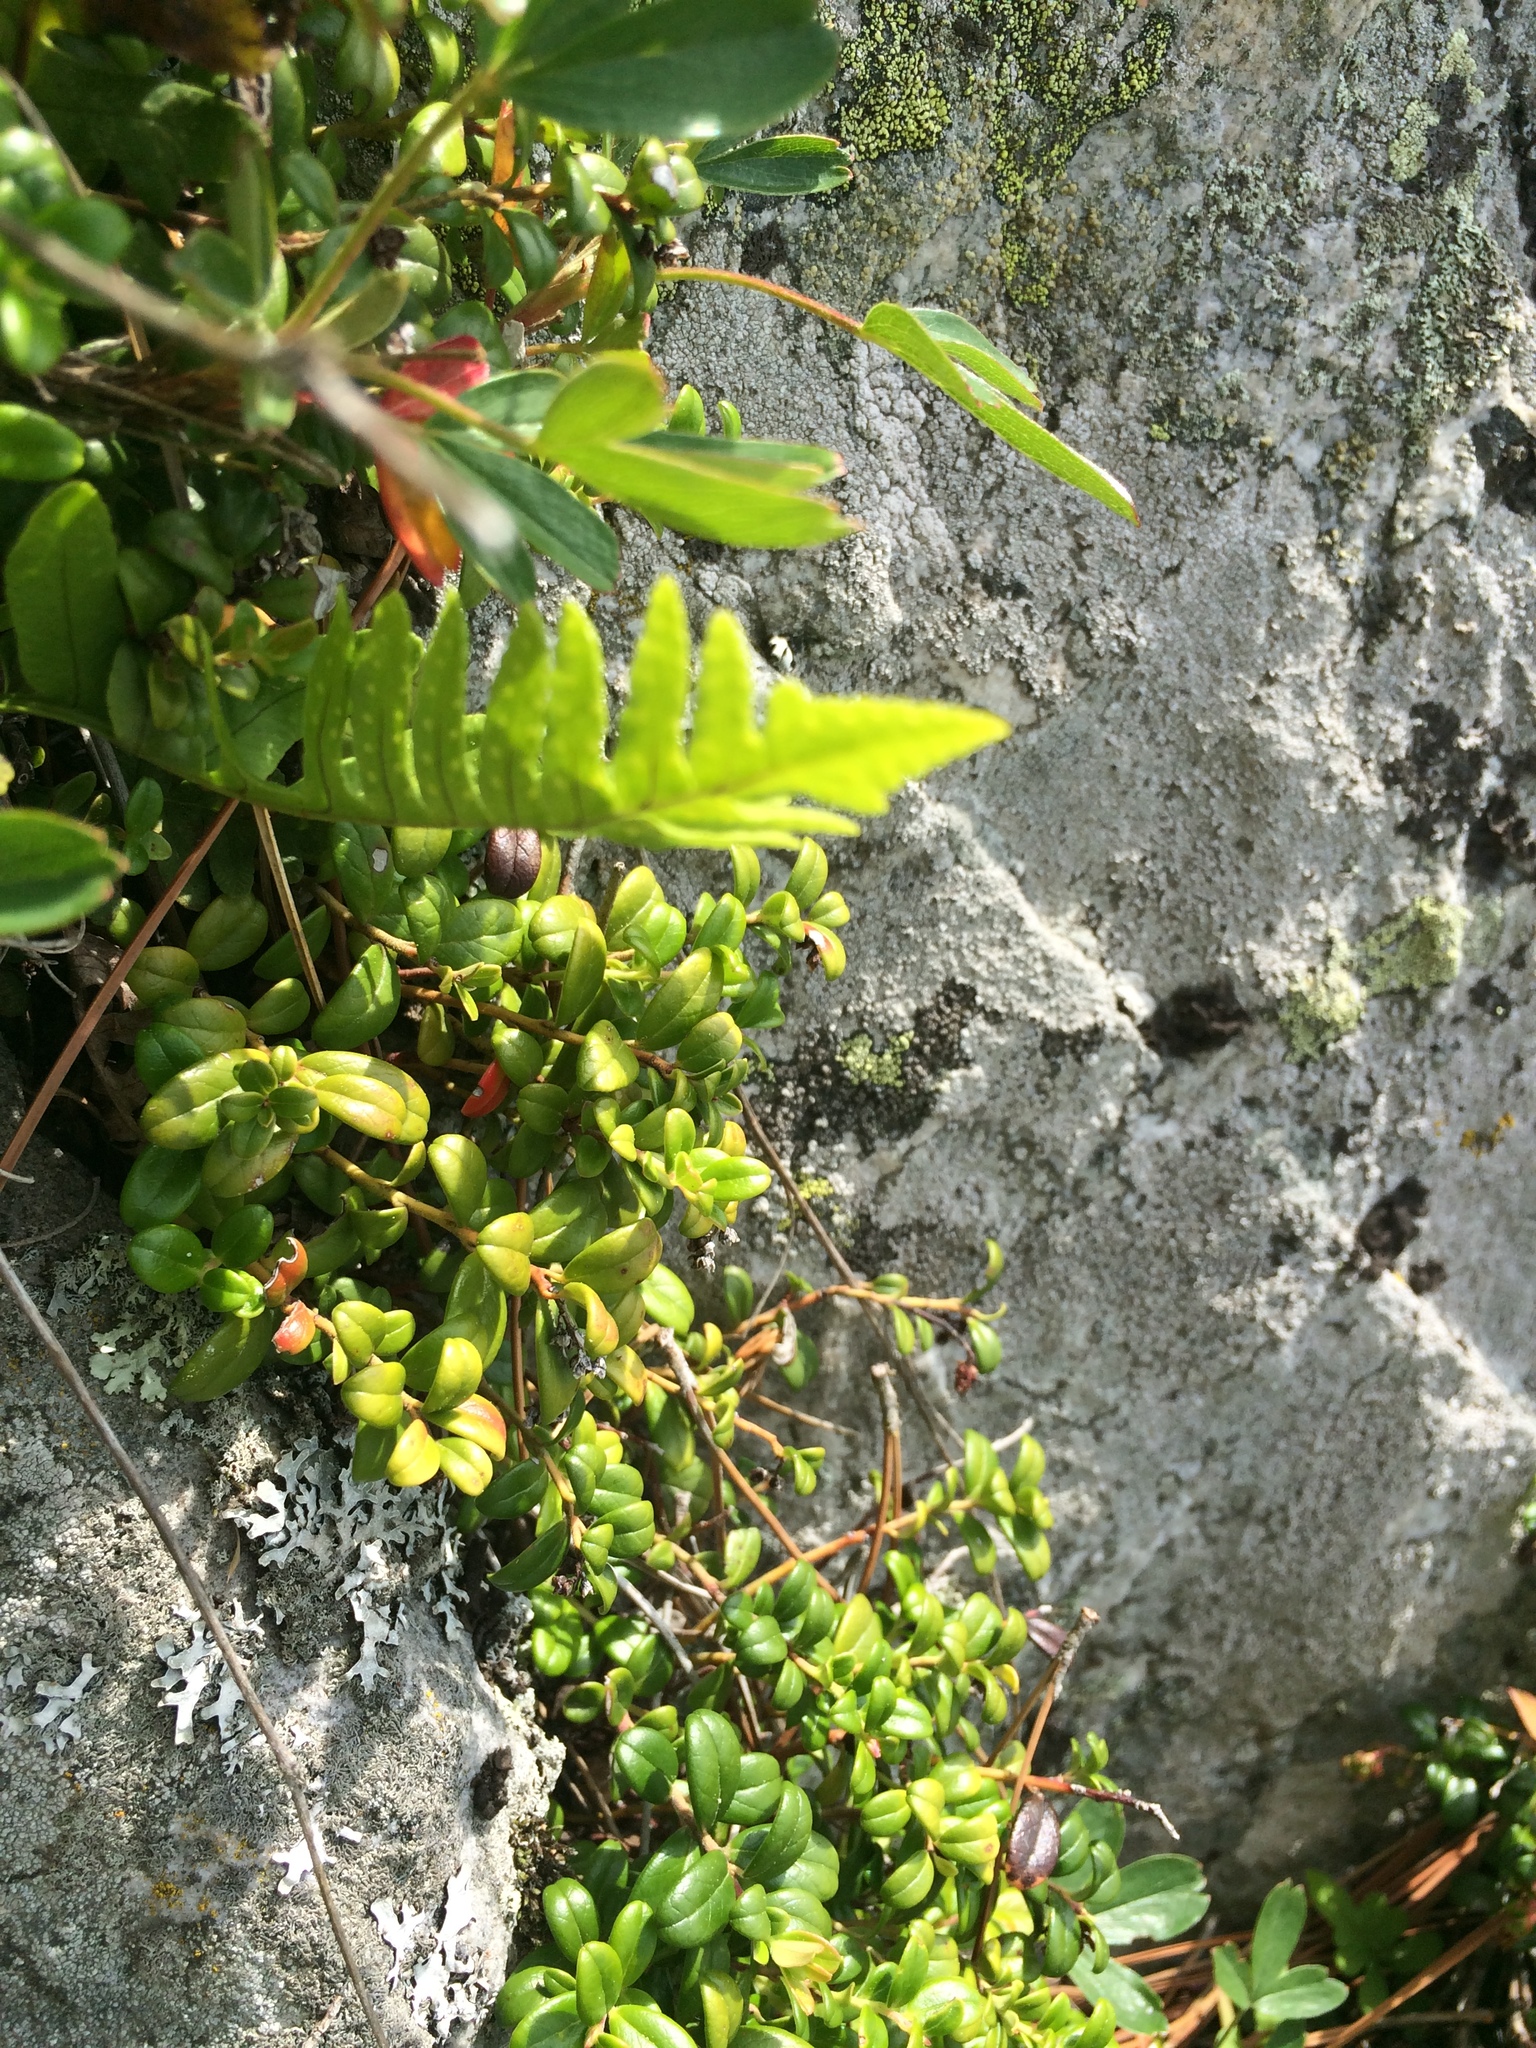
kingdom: Plantae
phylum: Tracheophyta
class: Magnoliopsida
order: Ericales
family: Ericaceae
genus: Vaccinium
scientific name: Vaccinium vitis-idaea
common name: Cowberry
